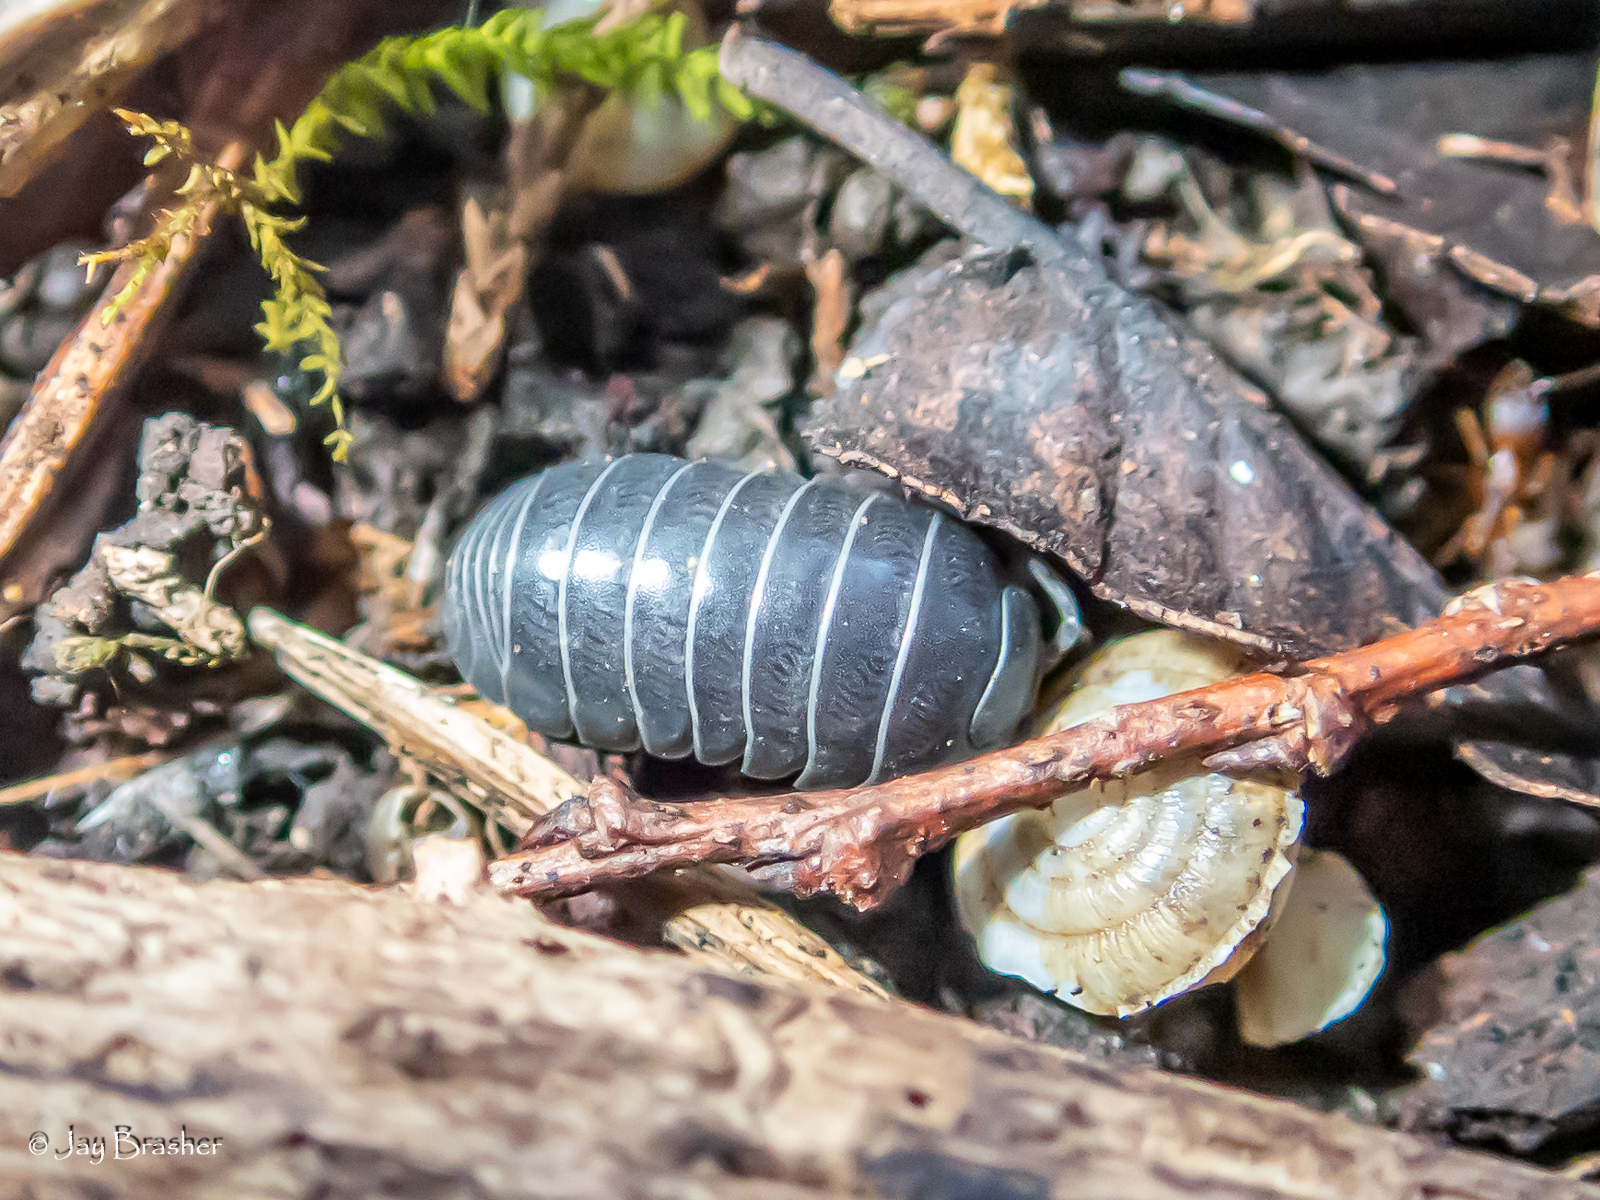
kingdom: Animalia
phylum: Arthropoda
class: Malacostraca
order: Isopoda
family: Armadillidiidae
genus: Armadillidium
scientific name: Armadillidium vulgare
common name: Common pill woodlouse
